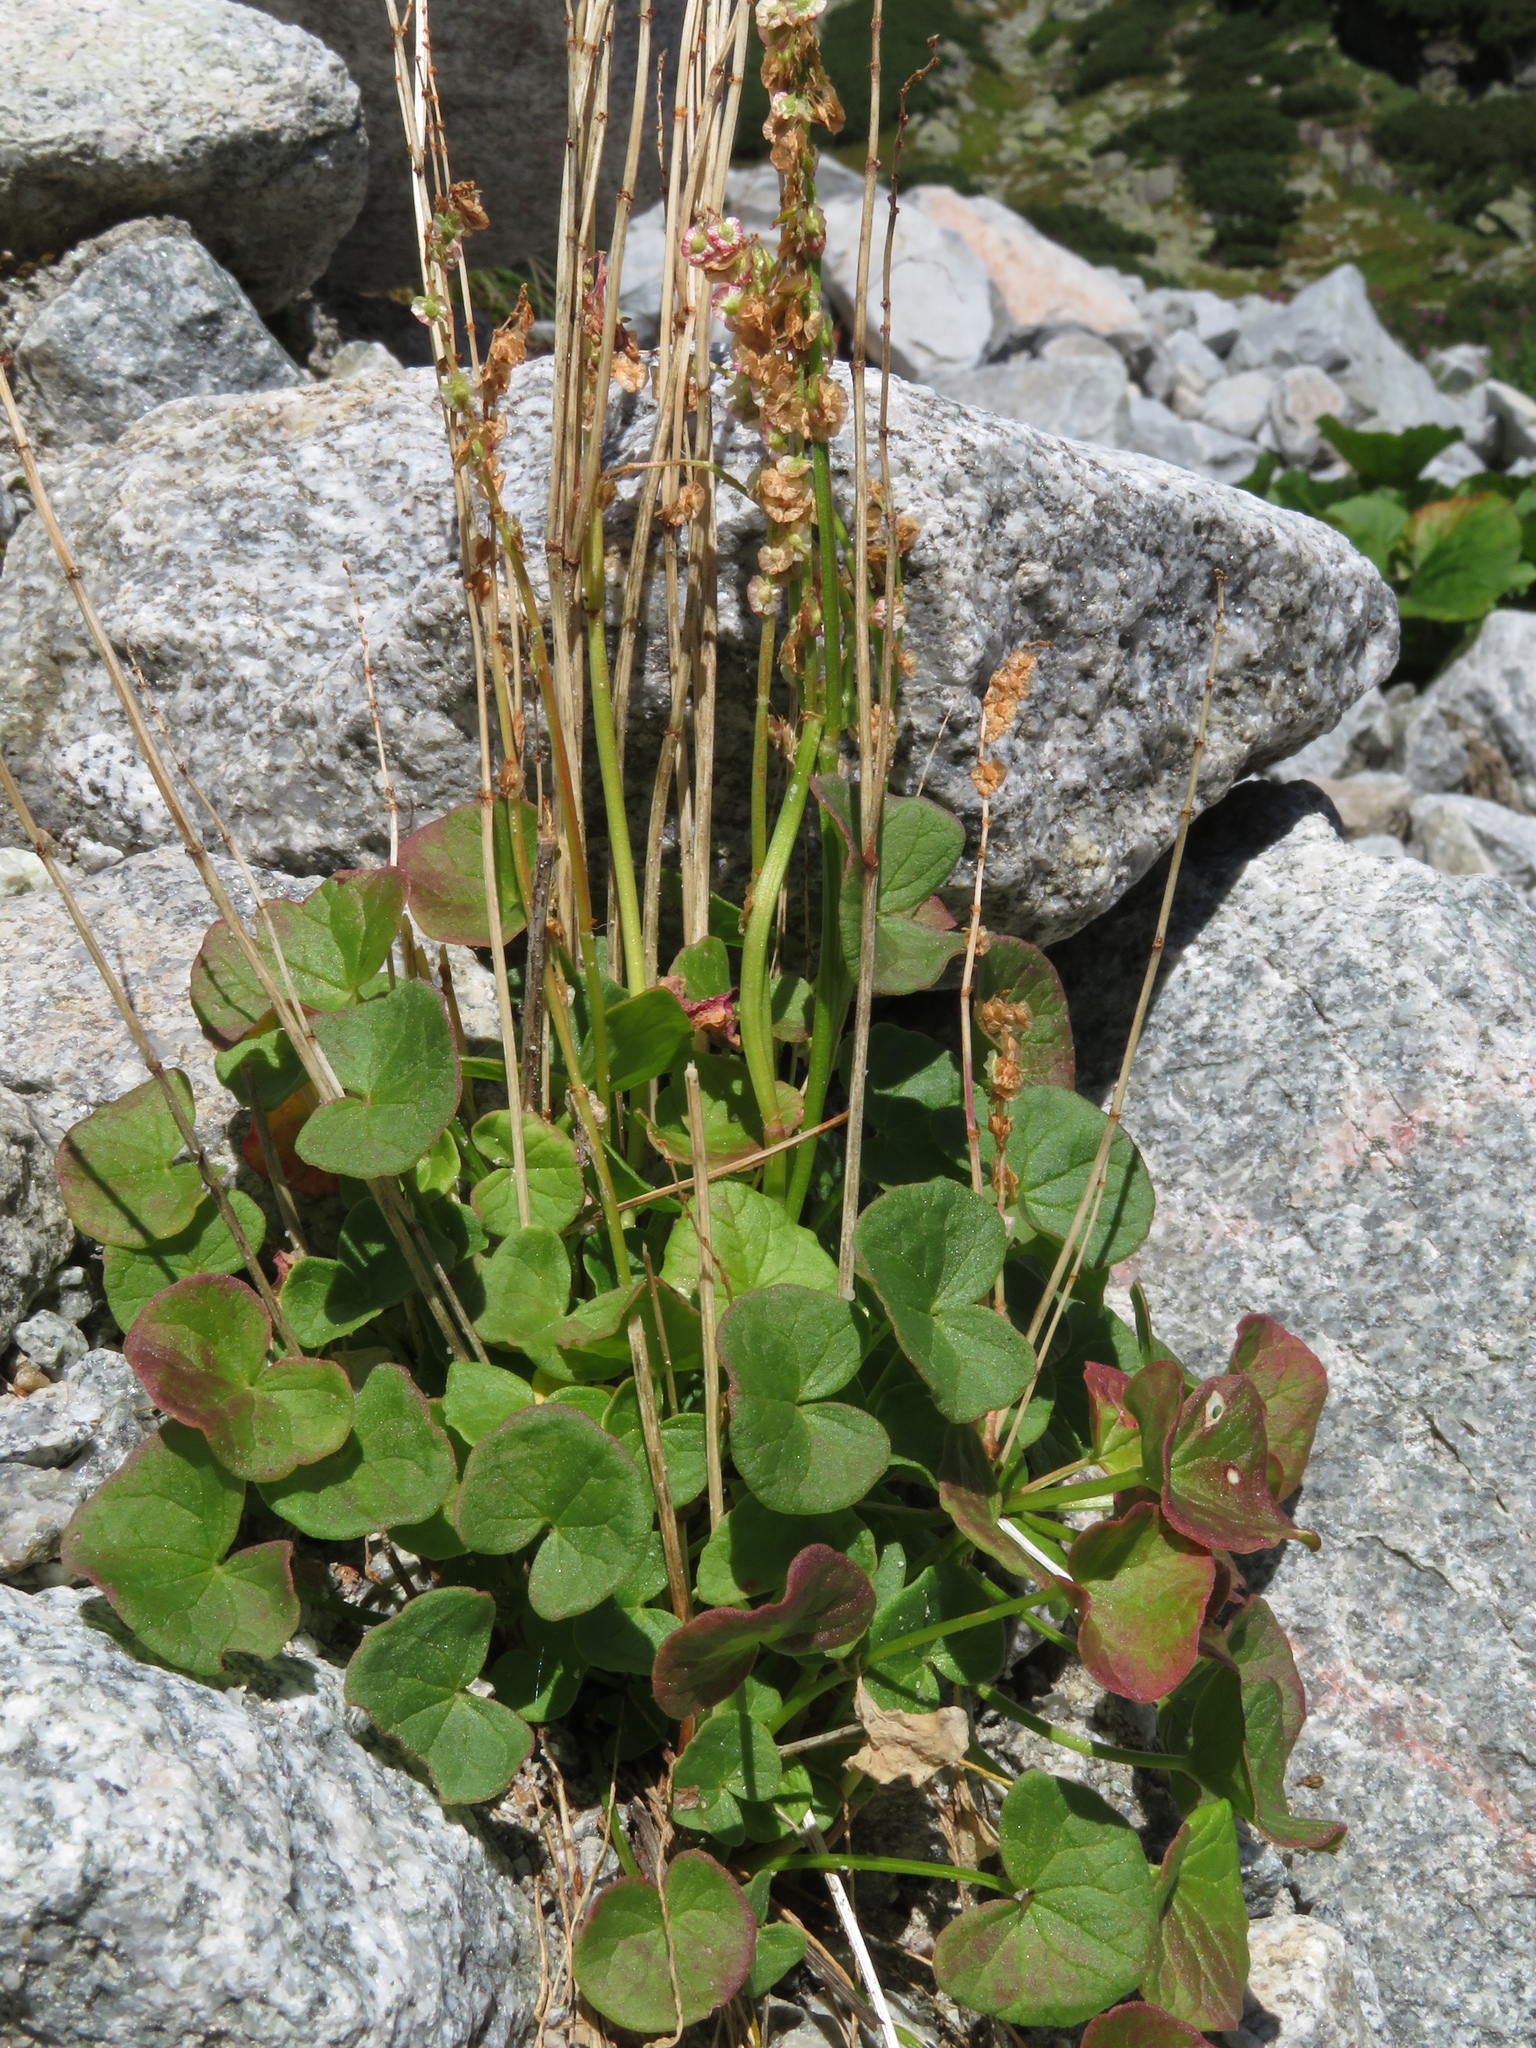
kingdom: Plantae
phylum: Tracheophyta
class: Magnoliopsida
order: Caryophyllales
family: Polygonaceae
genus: Oxyria
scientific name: Oxyria digyna
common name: Alpine mountain-sorrel
